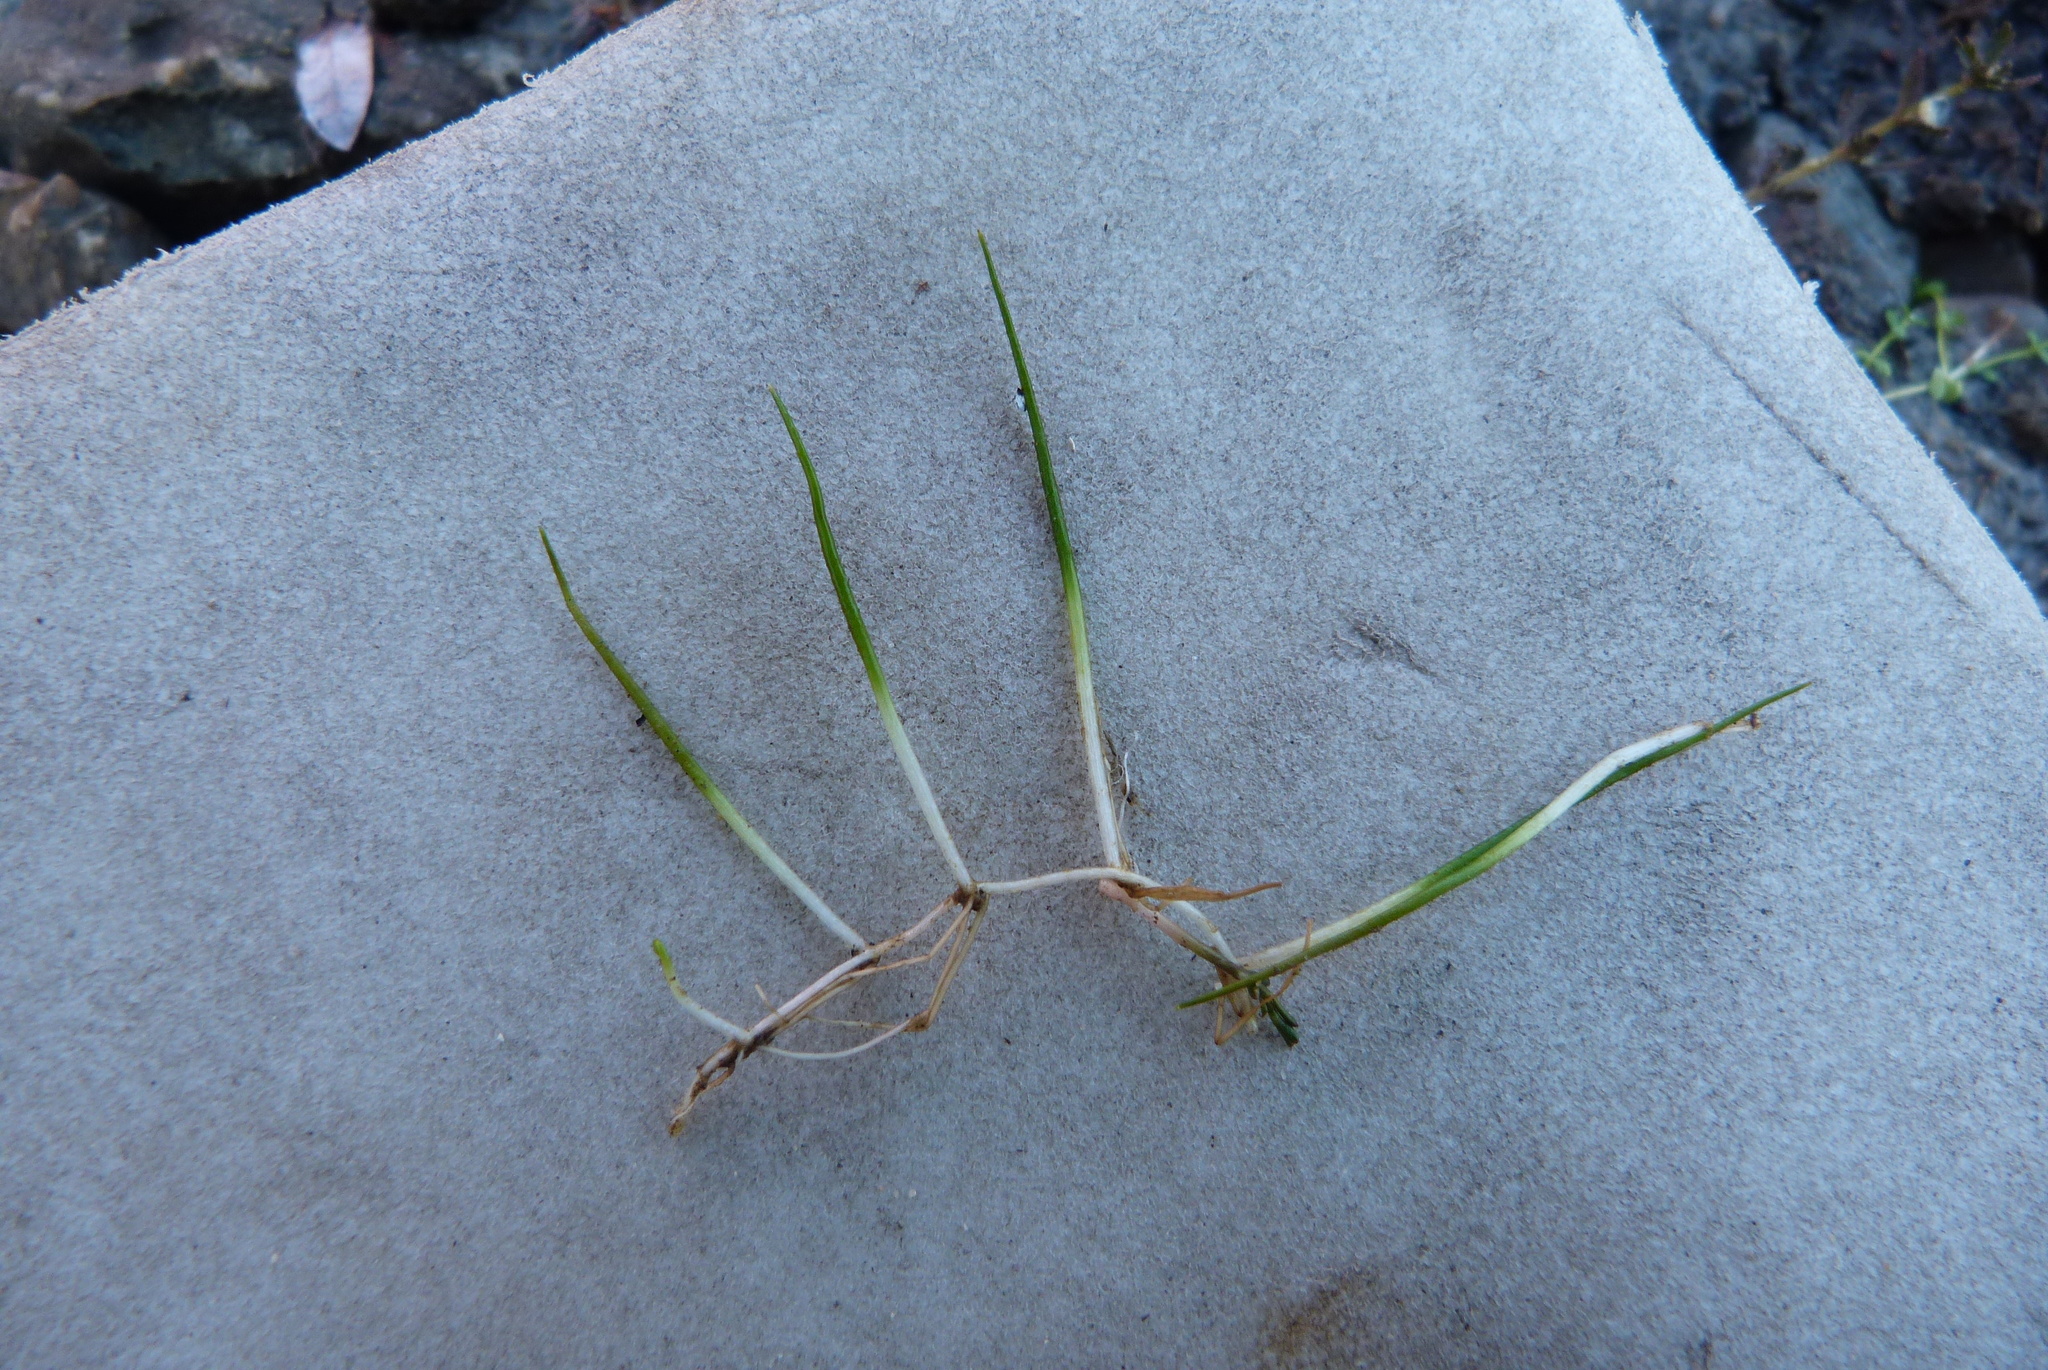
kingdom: Plantae
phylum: Tracheophyta
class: Polypodiopsida
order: Salviniales
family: Marsileaceae
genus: Pilularia
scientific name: Pilularia novae-hollandiae
